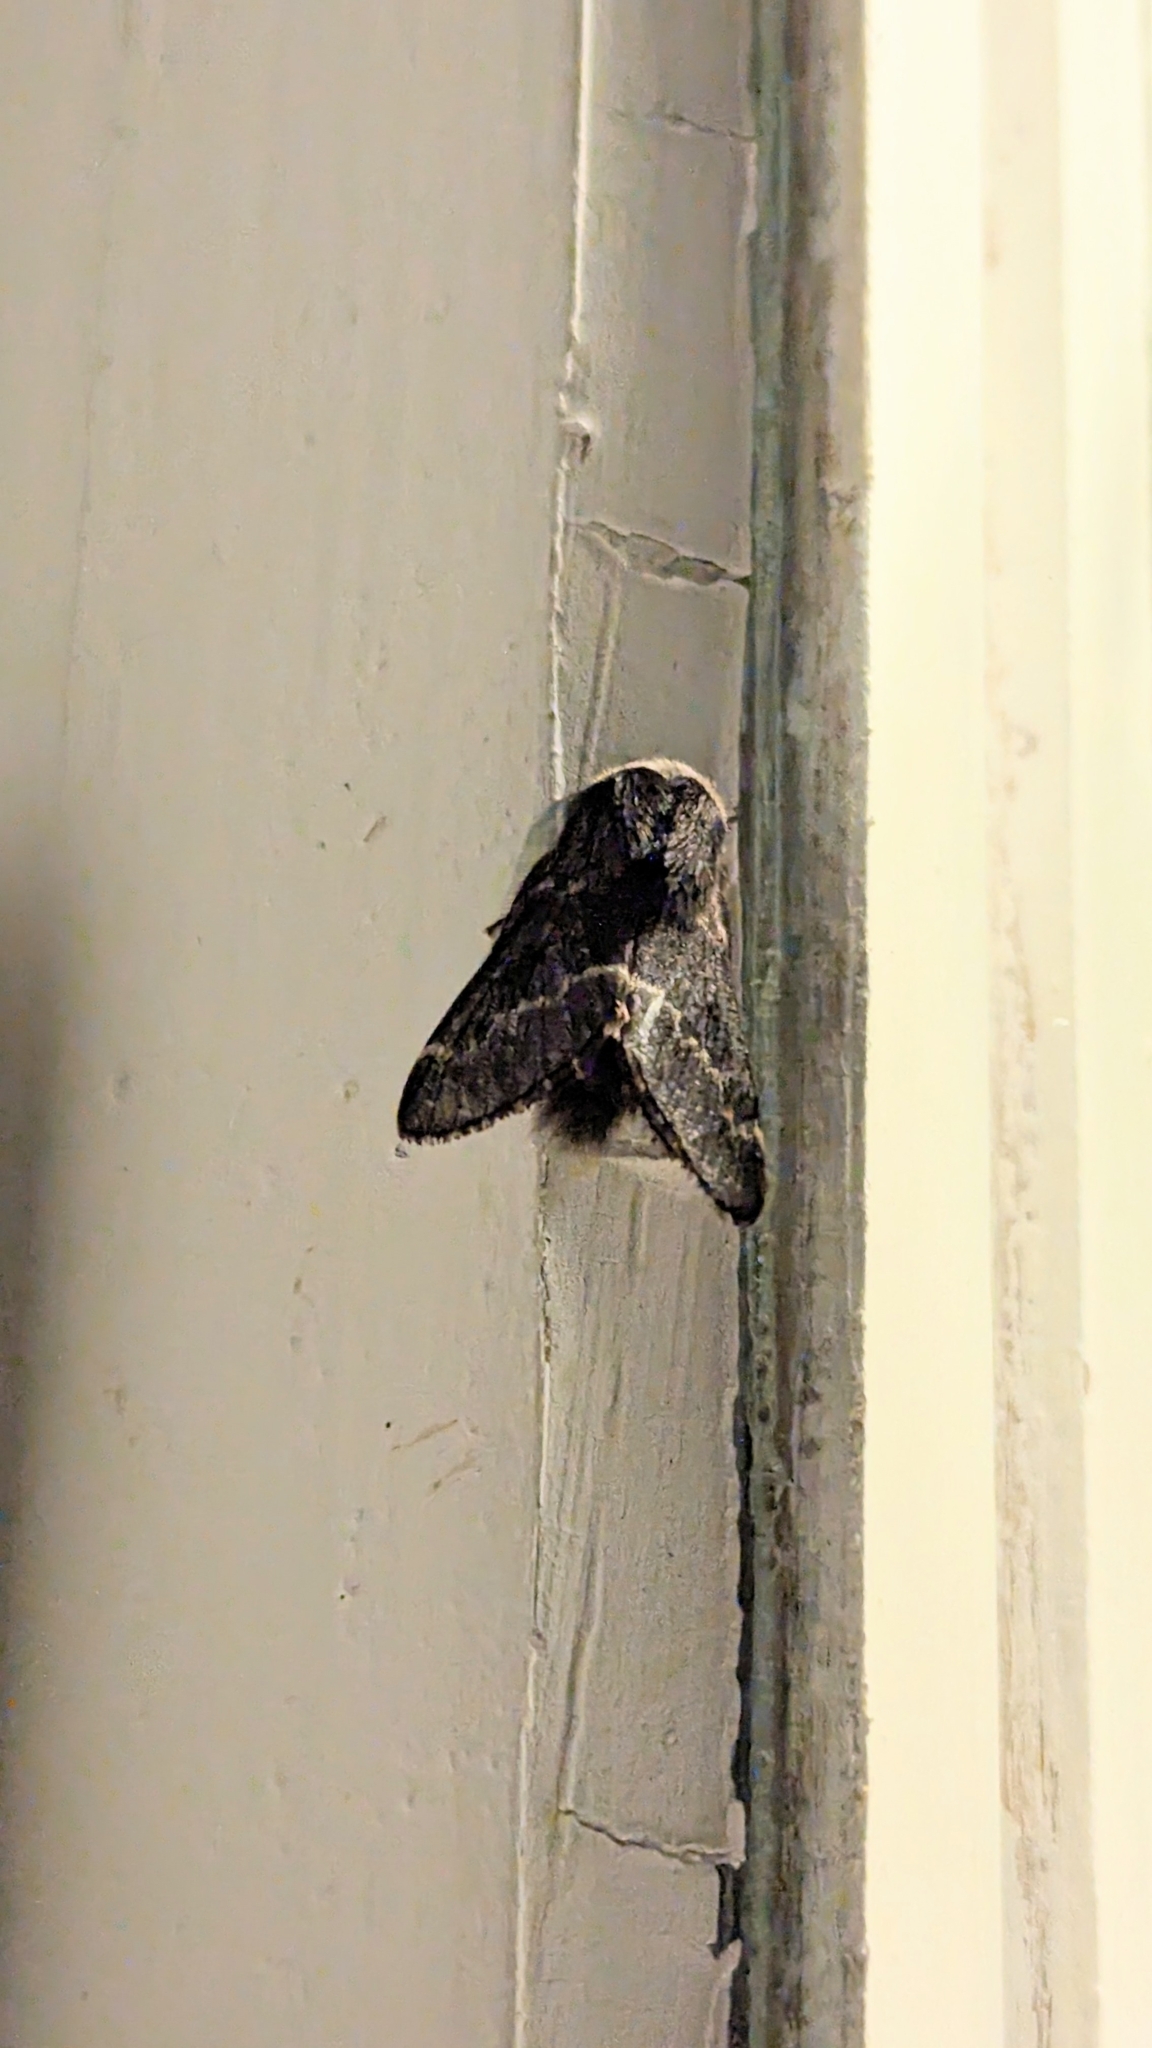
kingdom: Animalia
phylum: Arthropoda
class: Insecta
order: Lepidoptera
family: Lasiocampidae
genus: Poecilocampa
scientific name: Poecilocampa populi
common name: December moth
